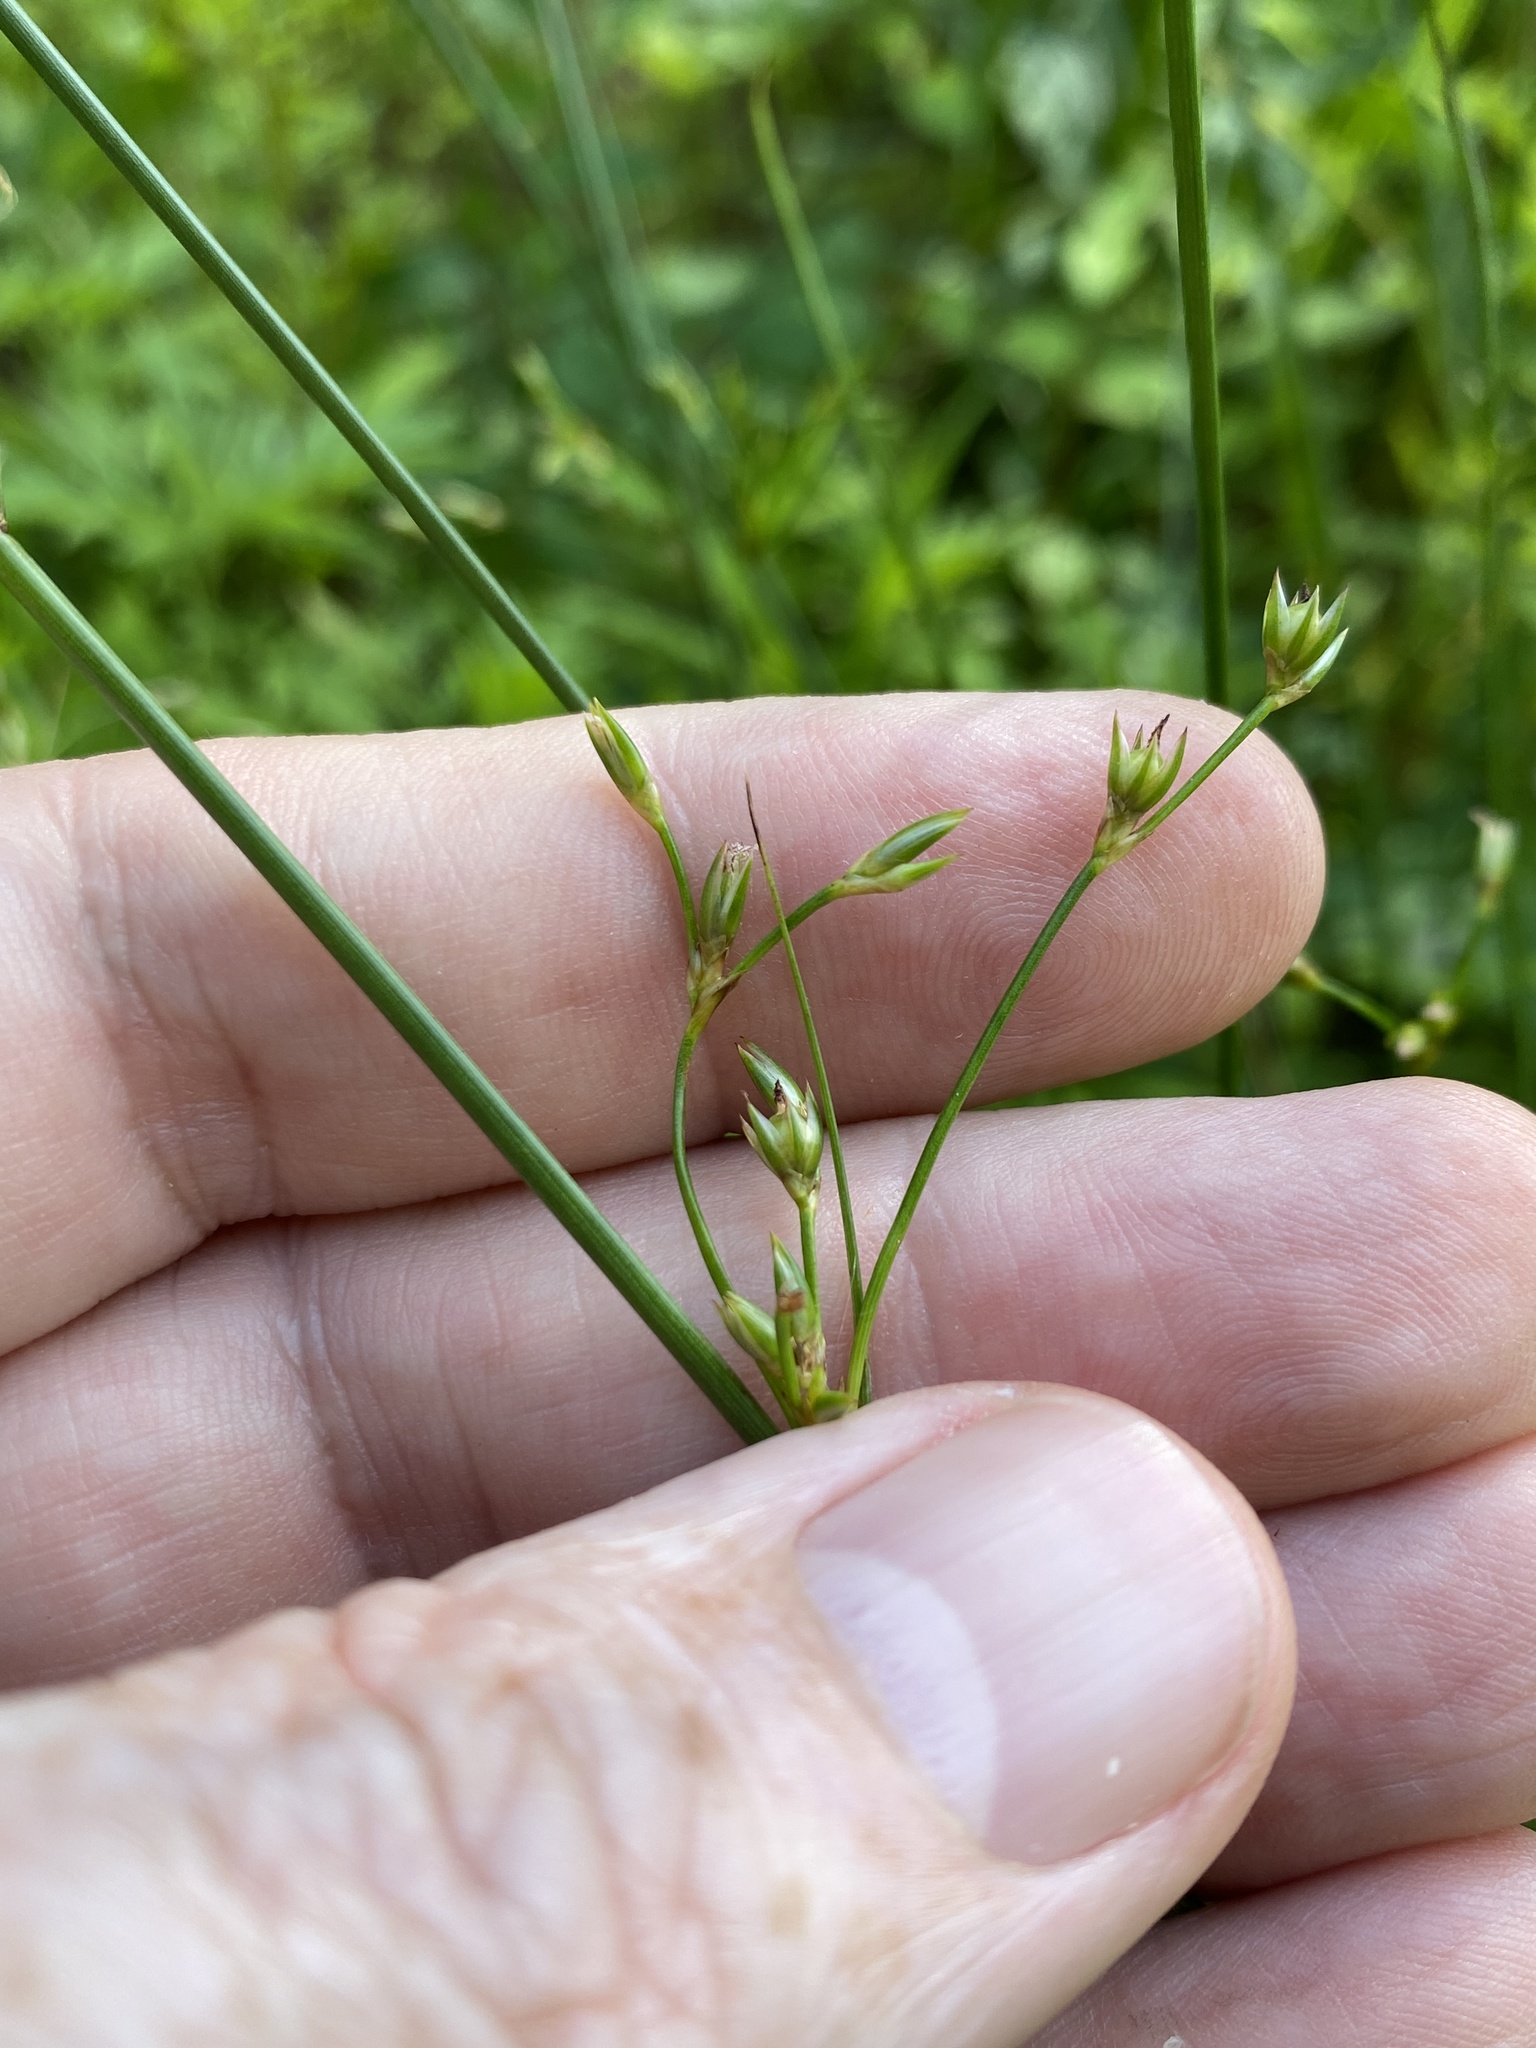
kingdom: Plantae
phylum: Tracheophyta
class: Liliopsida
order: Poales
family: Juncaceae
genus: Juncus
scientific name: Juncus coriaceus
